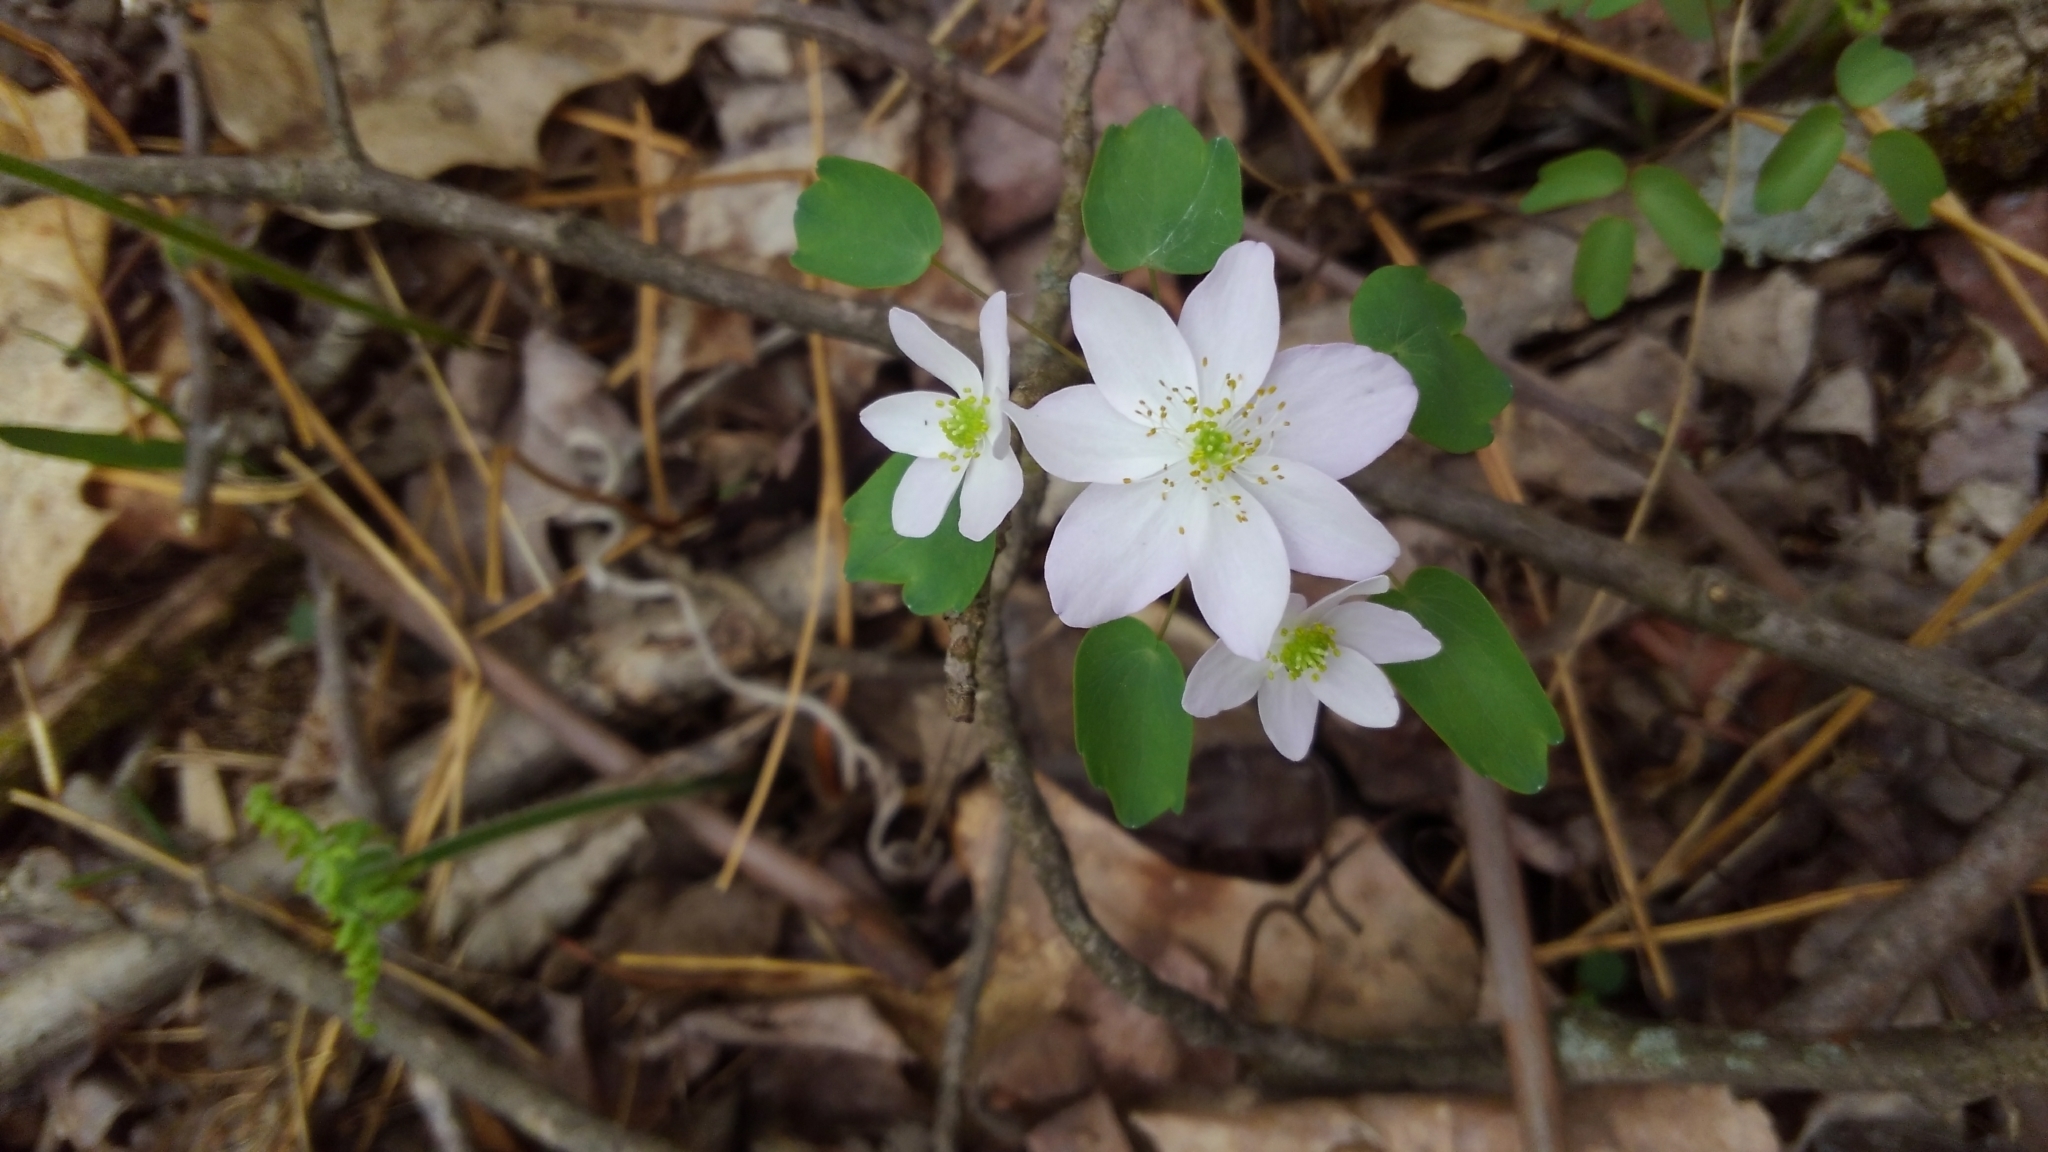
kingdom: Plantae
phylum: Tracheophyta
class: Magnoliopsida
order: Ranunculales
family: Ranunculaceae
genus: Thalictrum
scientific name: Thalictrum thalictroides
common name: Rue-anemone
